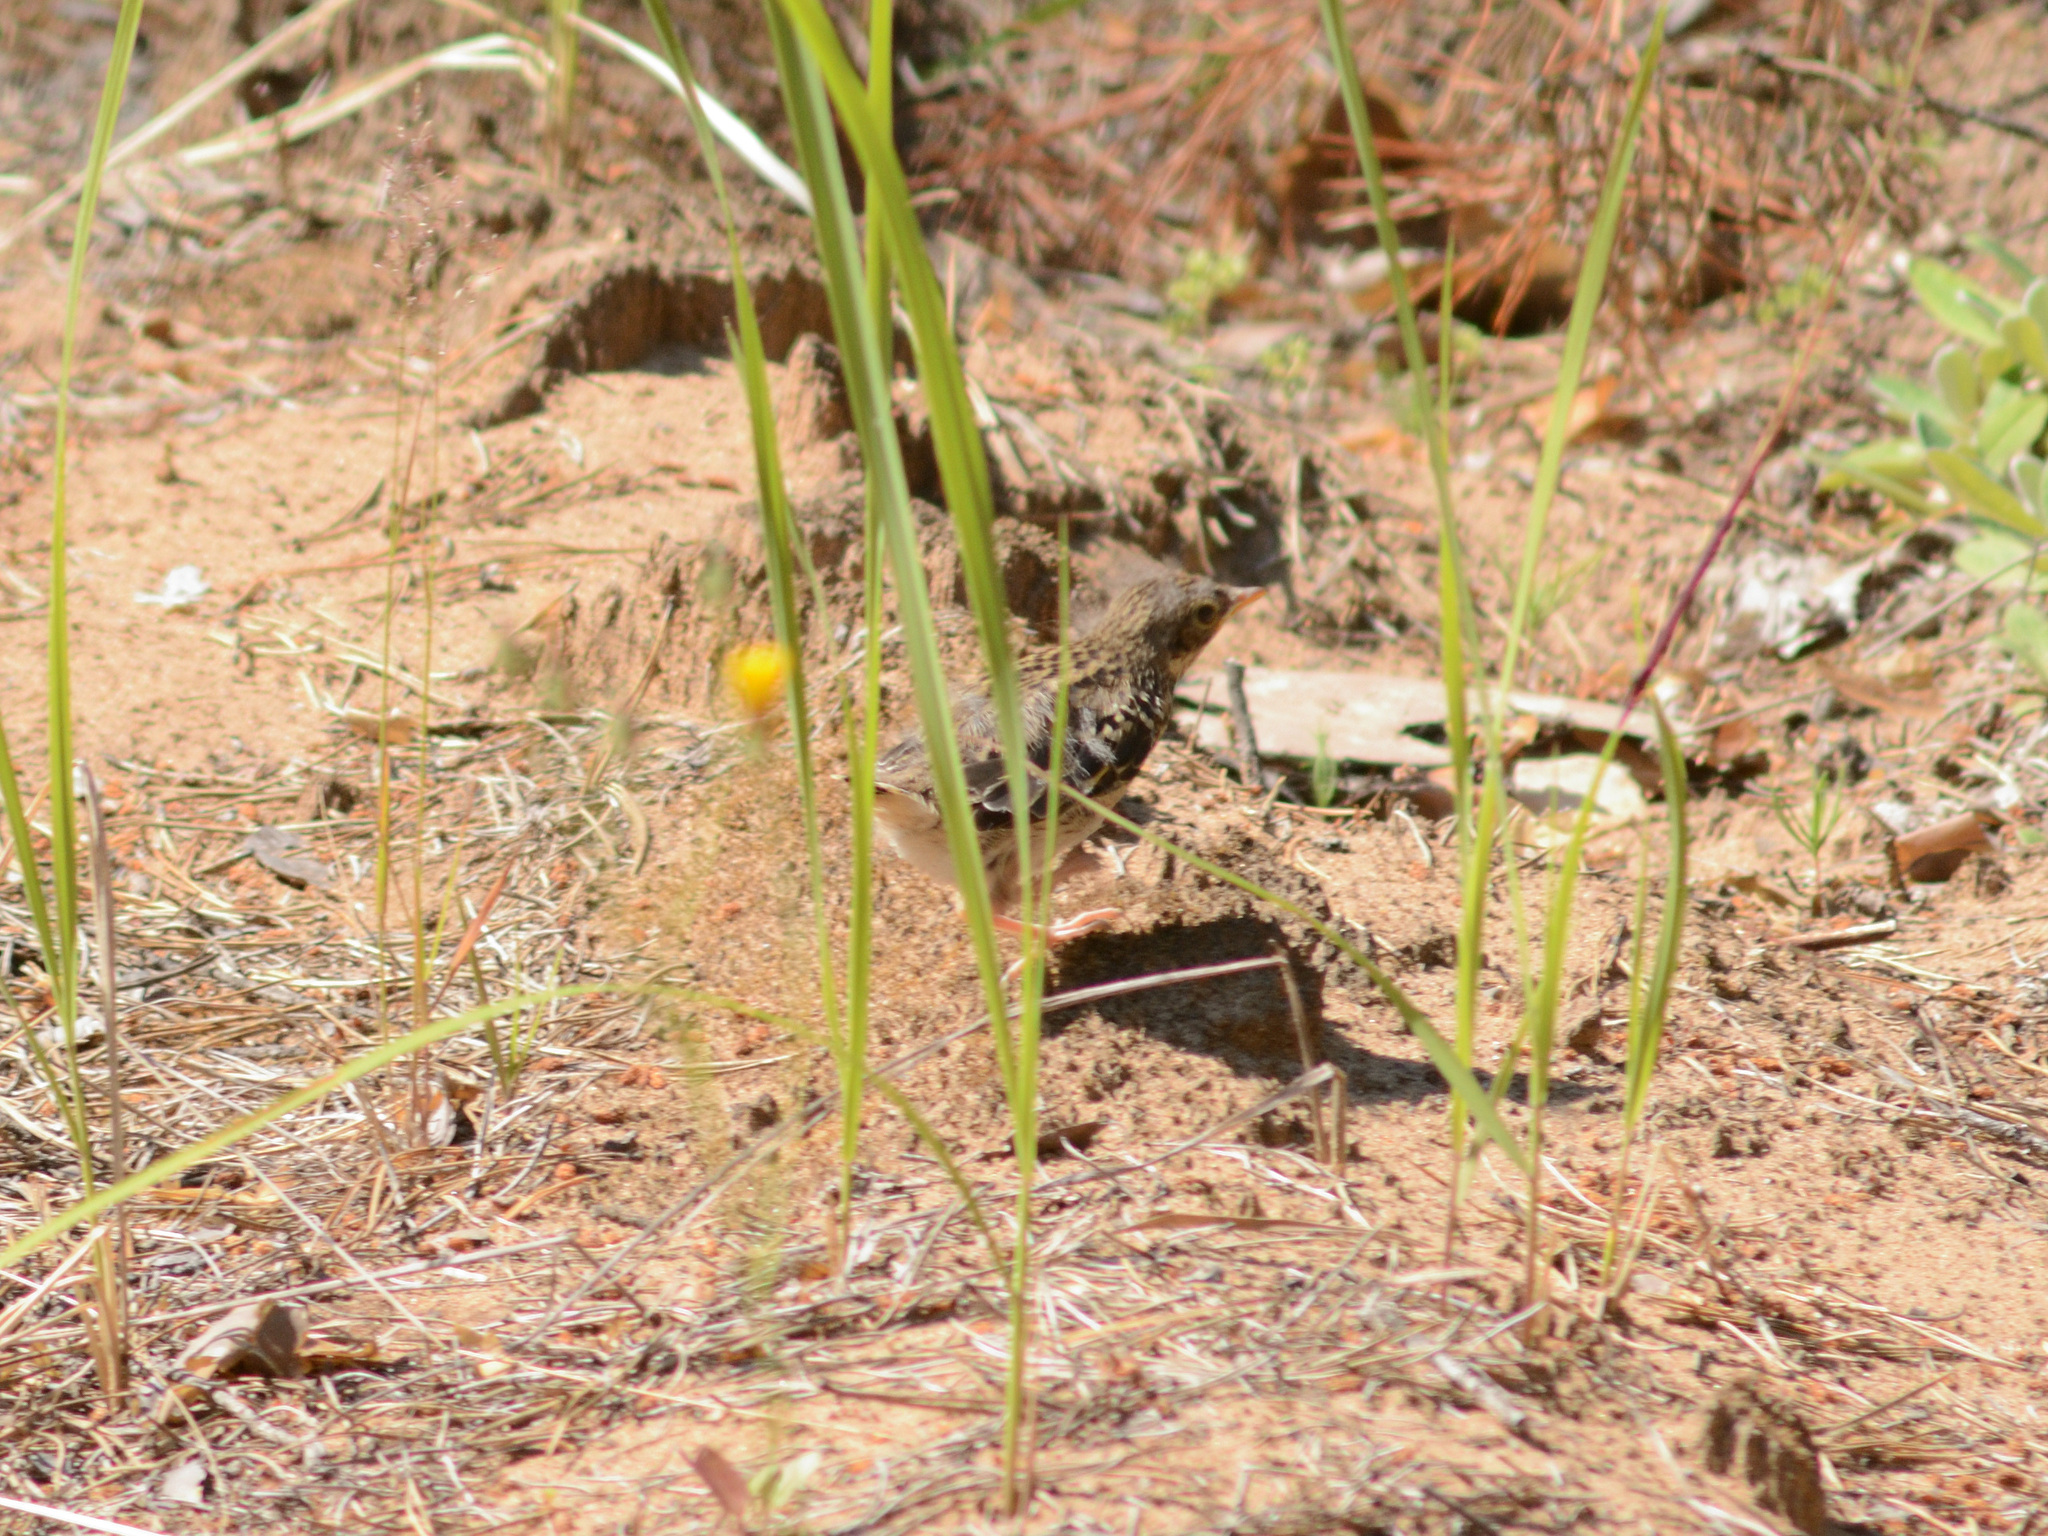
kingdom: Animalia
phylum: Chordata
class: Aves
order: Passeriformes
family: Motacillidae
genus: Anthus
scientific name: Anthus trivialis
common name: Tree pipit
